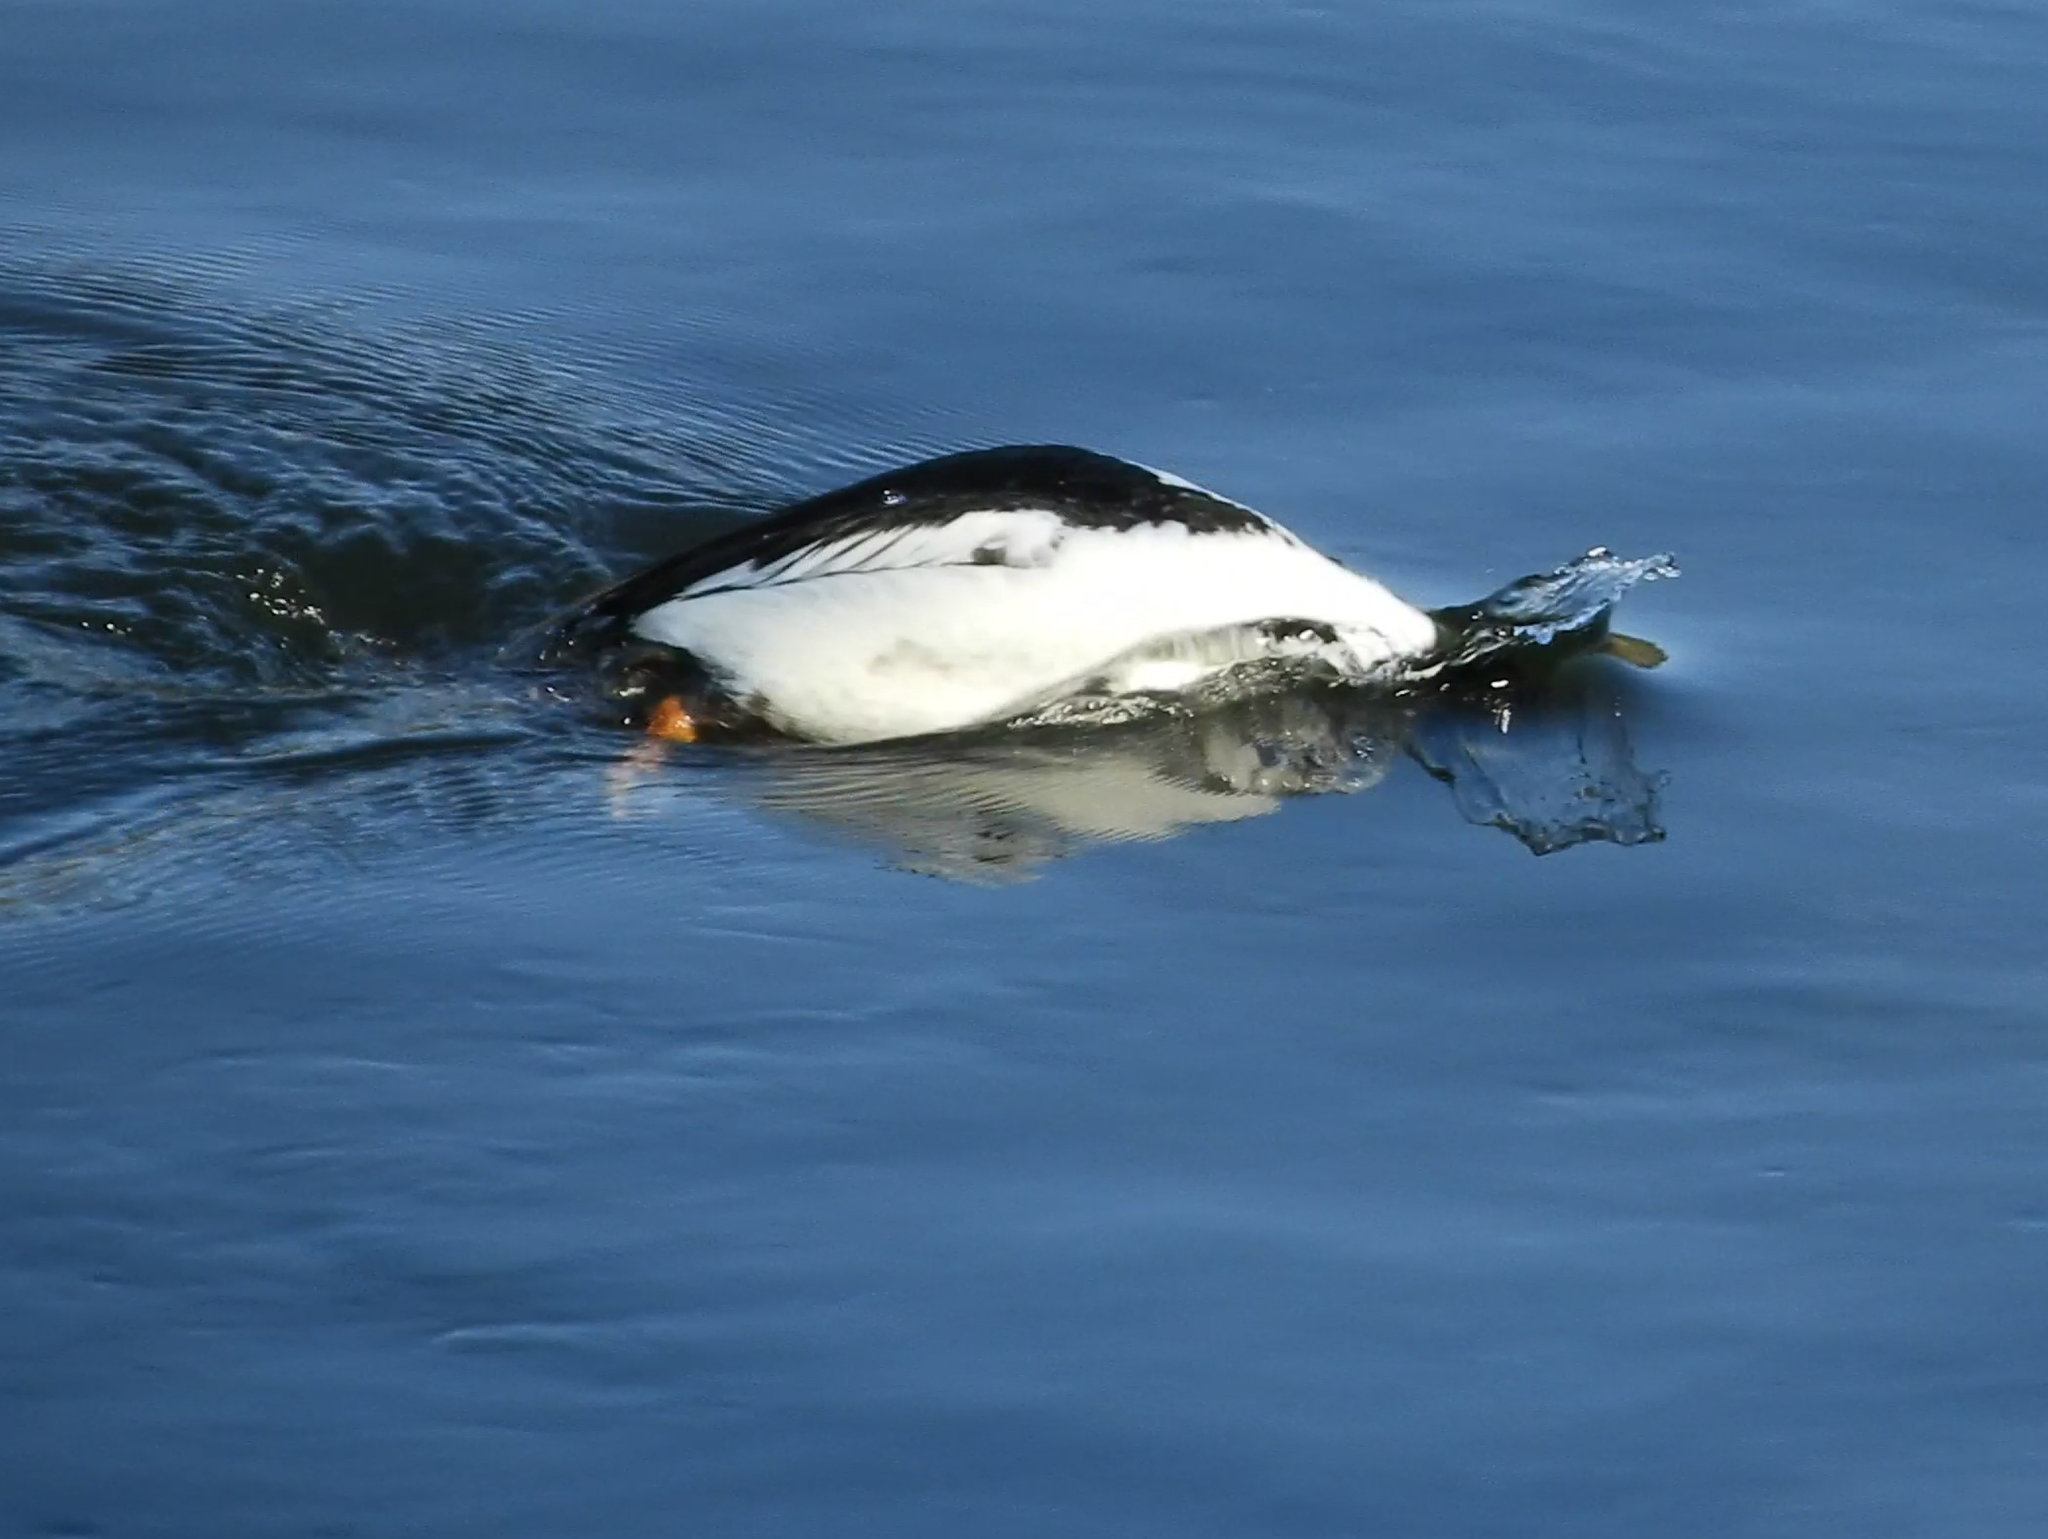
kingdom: Animalia
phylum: Chordata
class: Aves
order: Anseriformes
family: Anatidae
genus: Bucephala
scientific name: Bucephala clangula
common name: Common goldeneye
